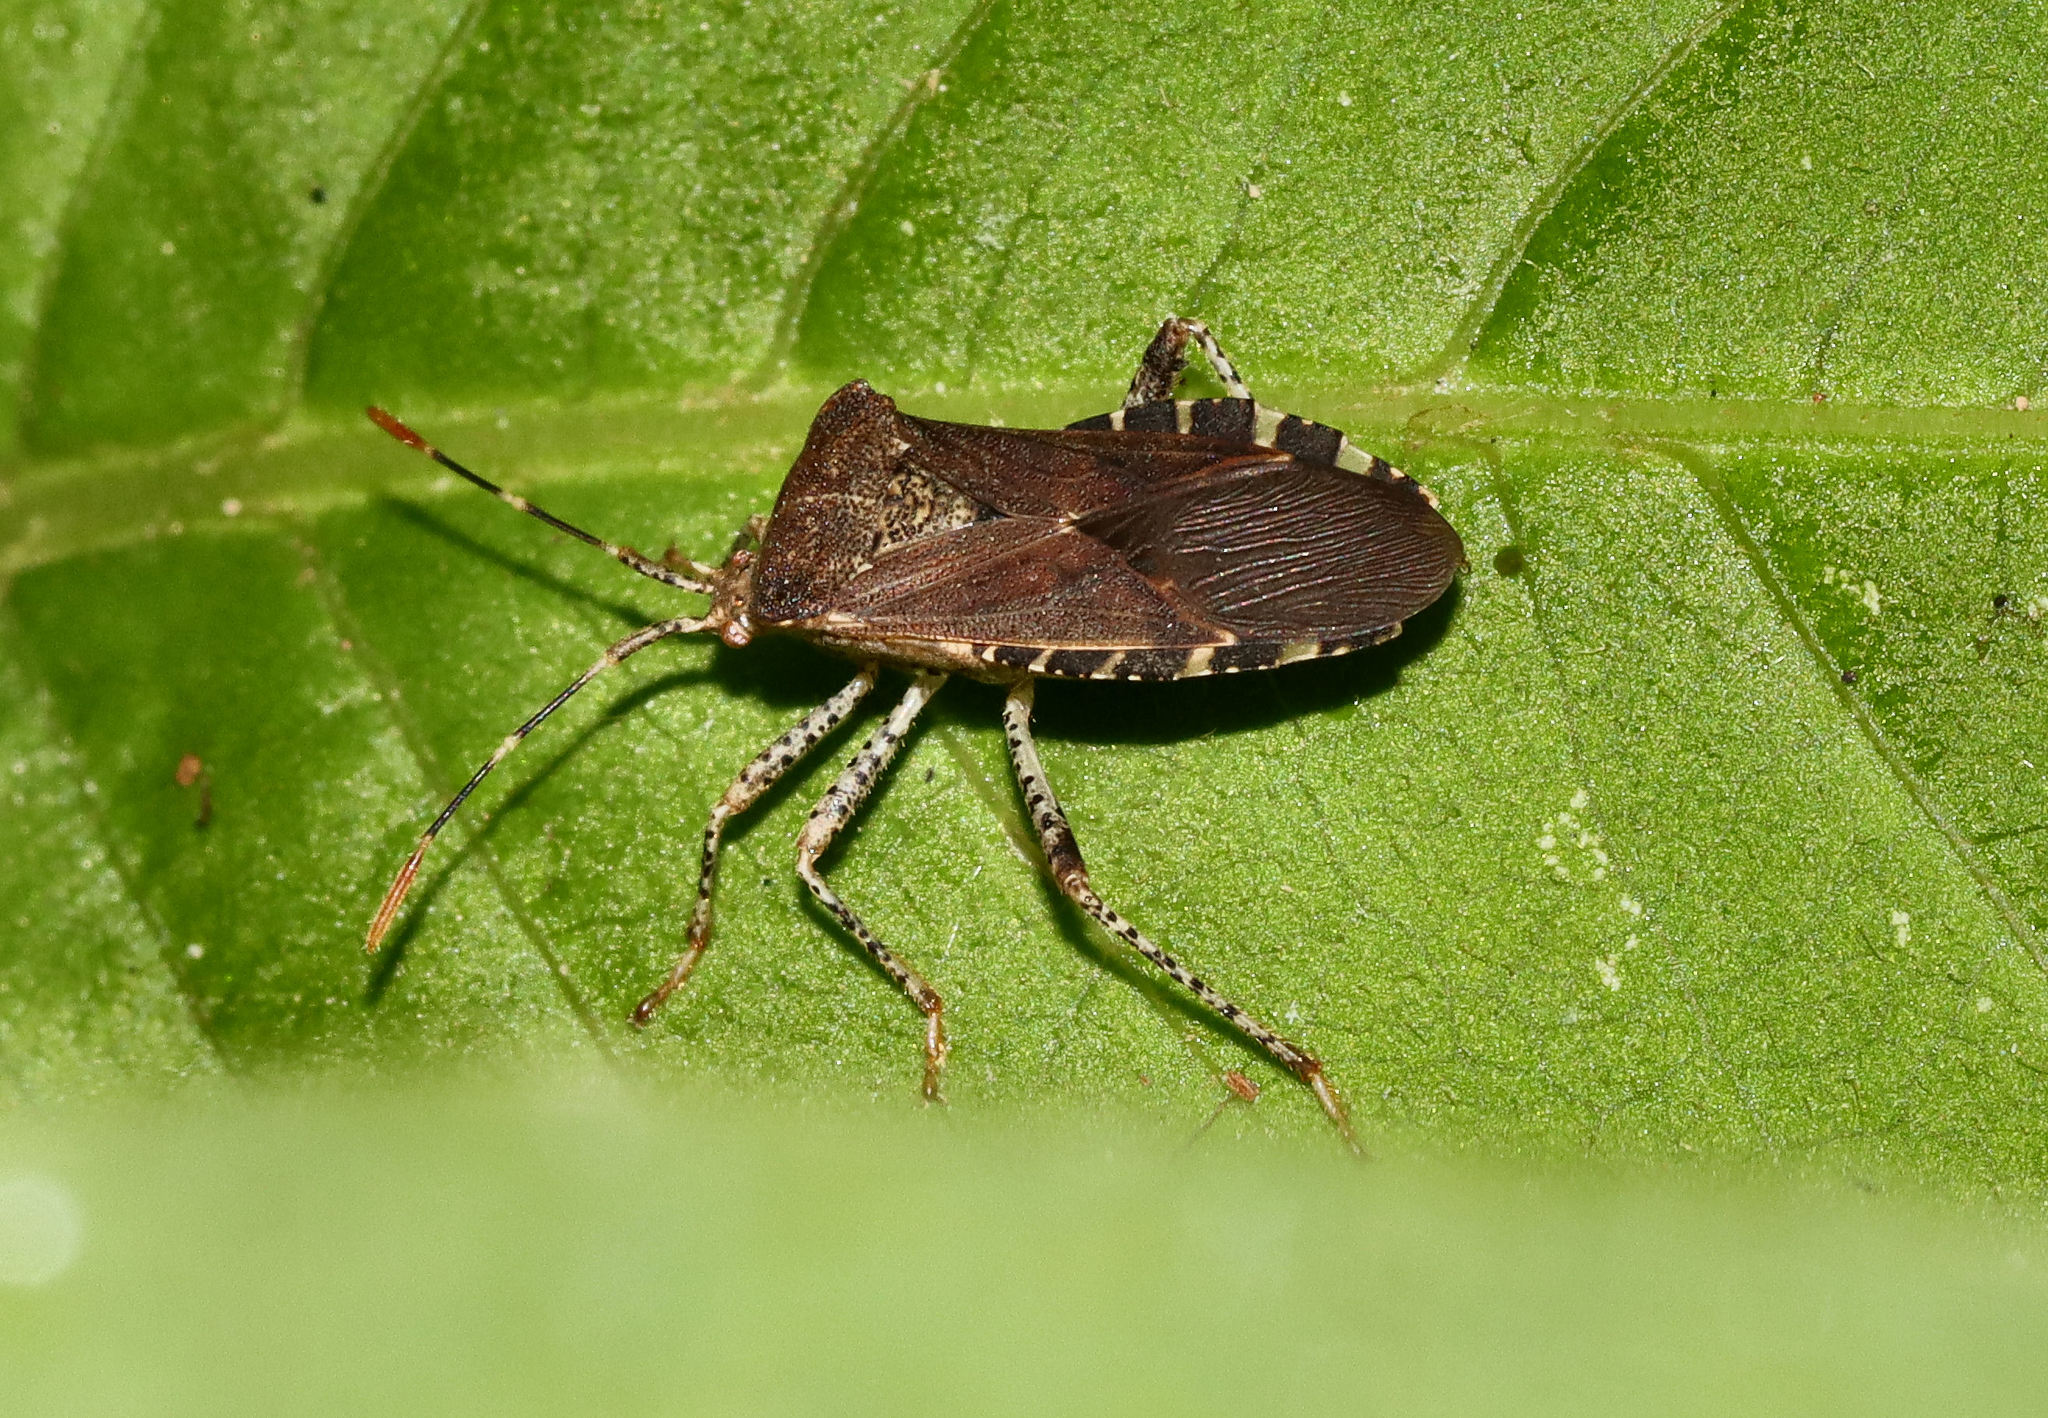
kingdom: Animalia
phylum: Arthropoda
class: Insecta
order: Hemiptera
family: Coreidae
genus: Anasa
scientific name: Anasa armigera
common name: Horned squash bug
